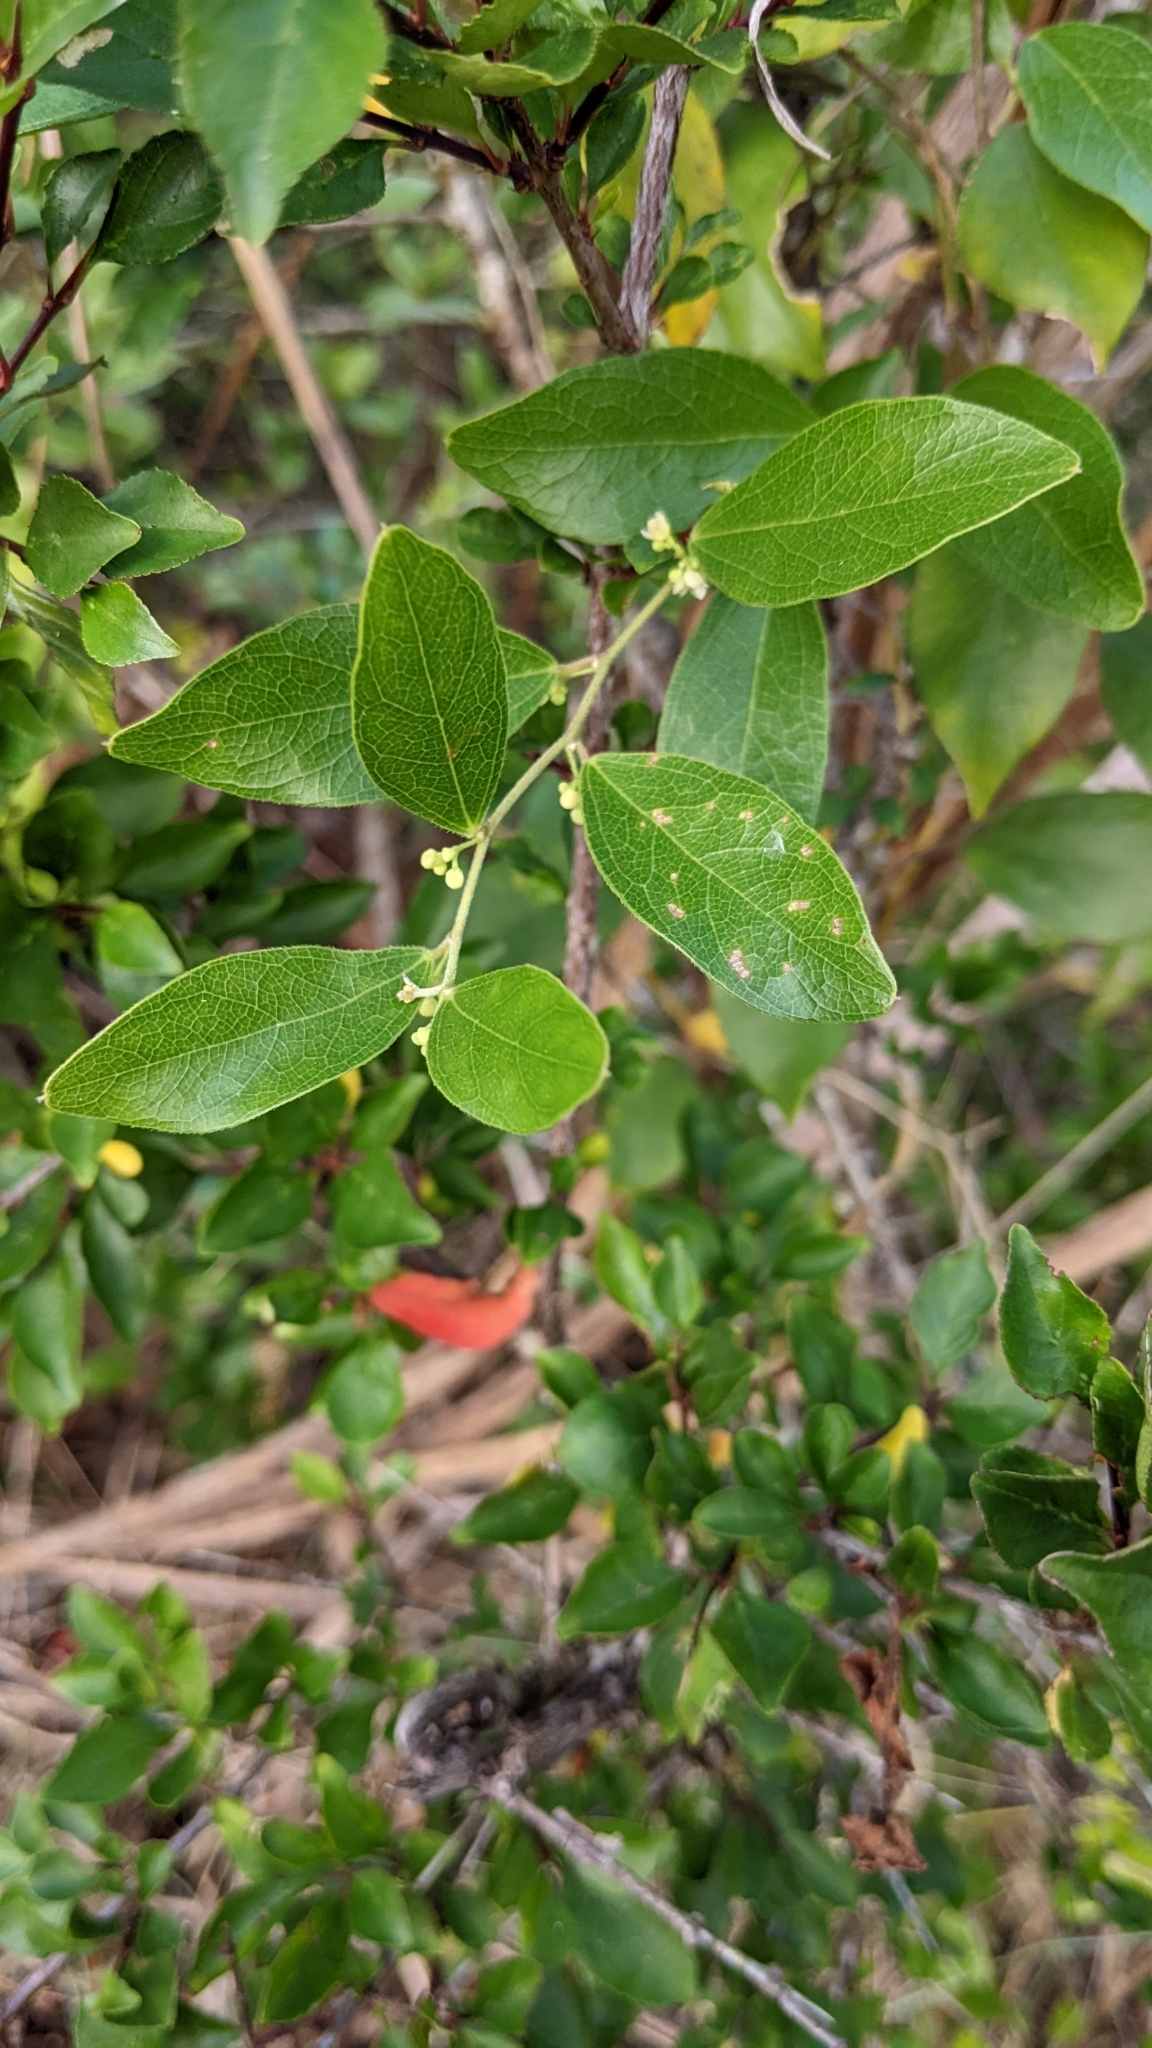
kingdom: Plantae
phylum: Tracheophyta
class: Magnoliopsida
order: Ranunculales
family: Menispermaceae
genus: Cocculus
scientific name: Cocculus orbiculatus
